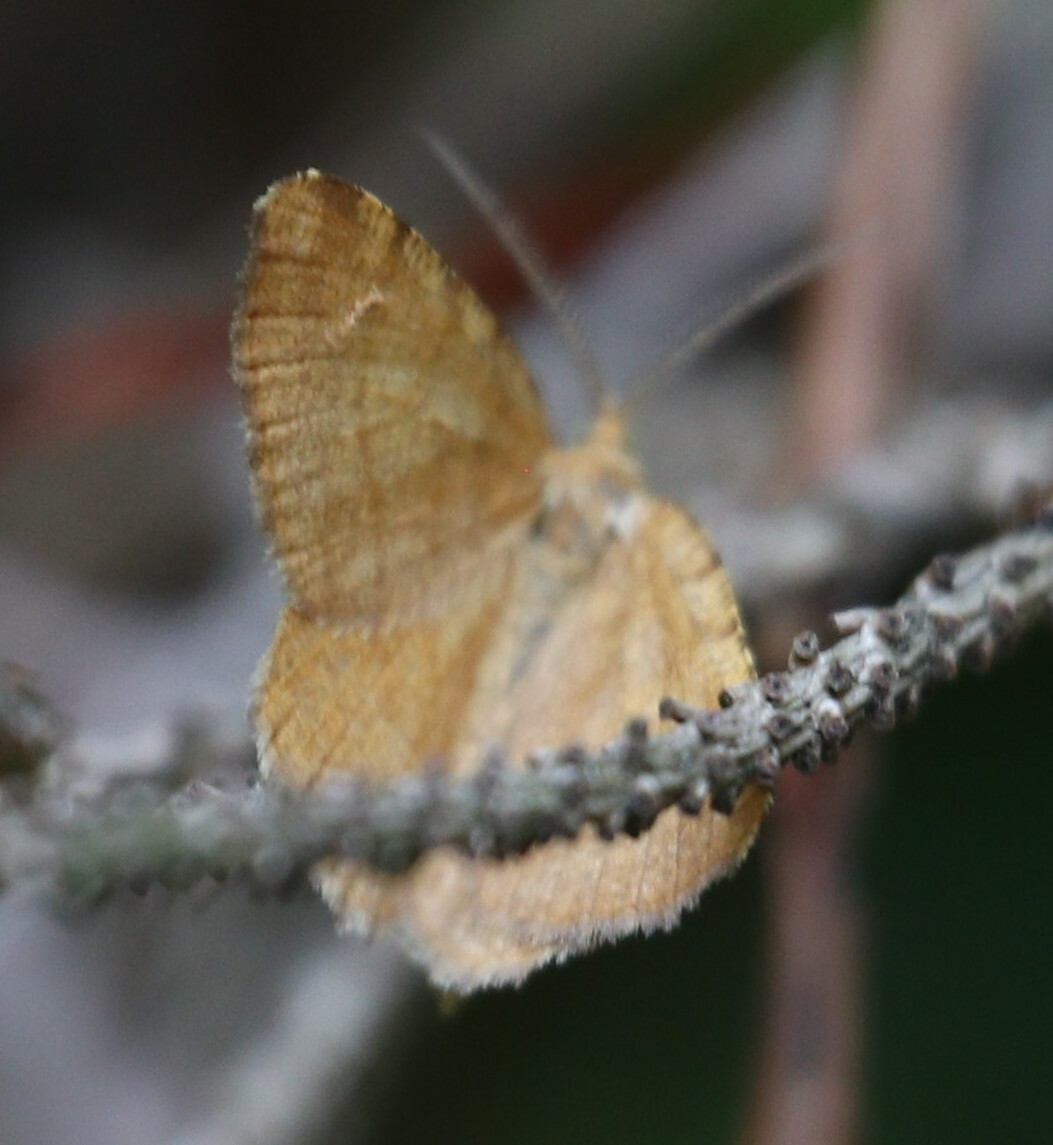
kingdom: Animalia
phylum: Arthropoda
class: Insecta
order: Lepidoptera
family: Geometridae
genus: Macaria
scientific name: Macaria brunneata
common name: Rannoch looper
